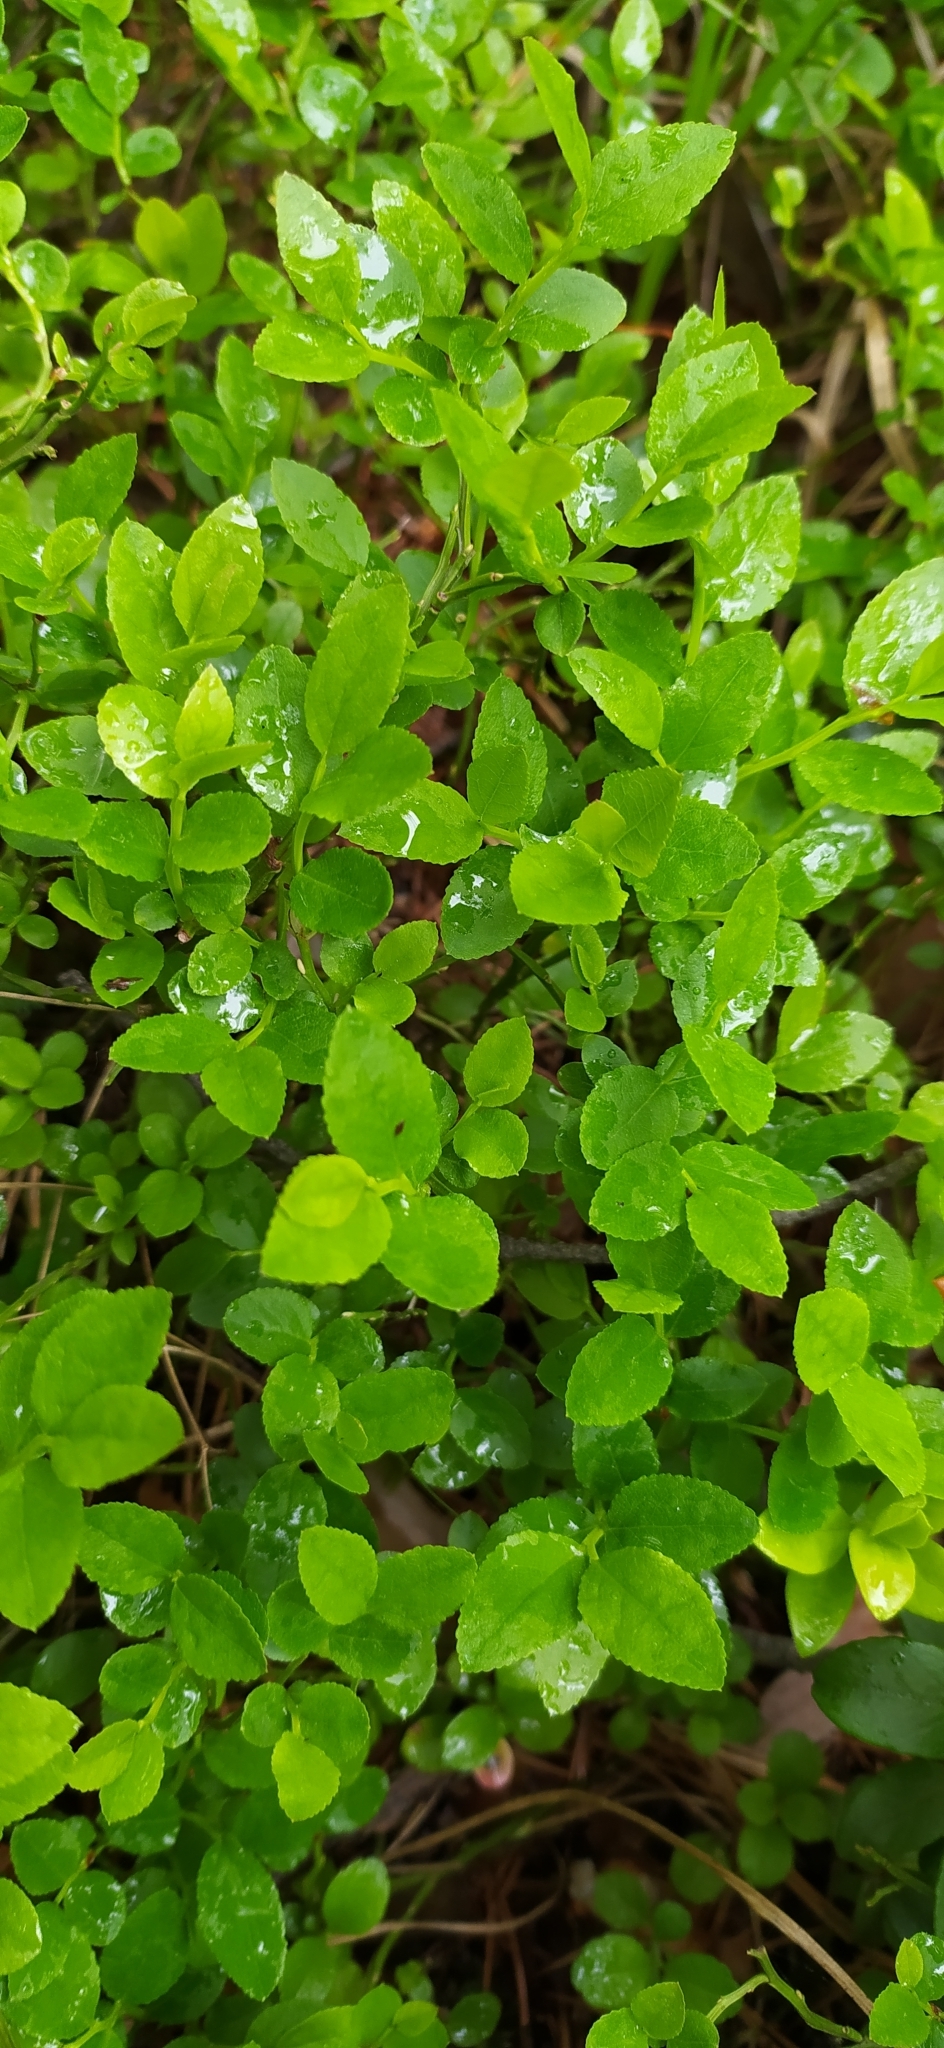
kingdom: Plantae
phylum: Tracheophyta
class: Magnoliopsida
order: Ericales
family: Ericaceae
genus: Vaccinium
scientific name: Vaccinium myrtillus
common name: Bilberry
